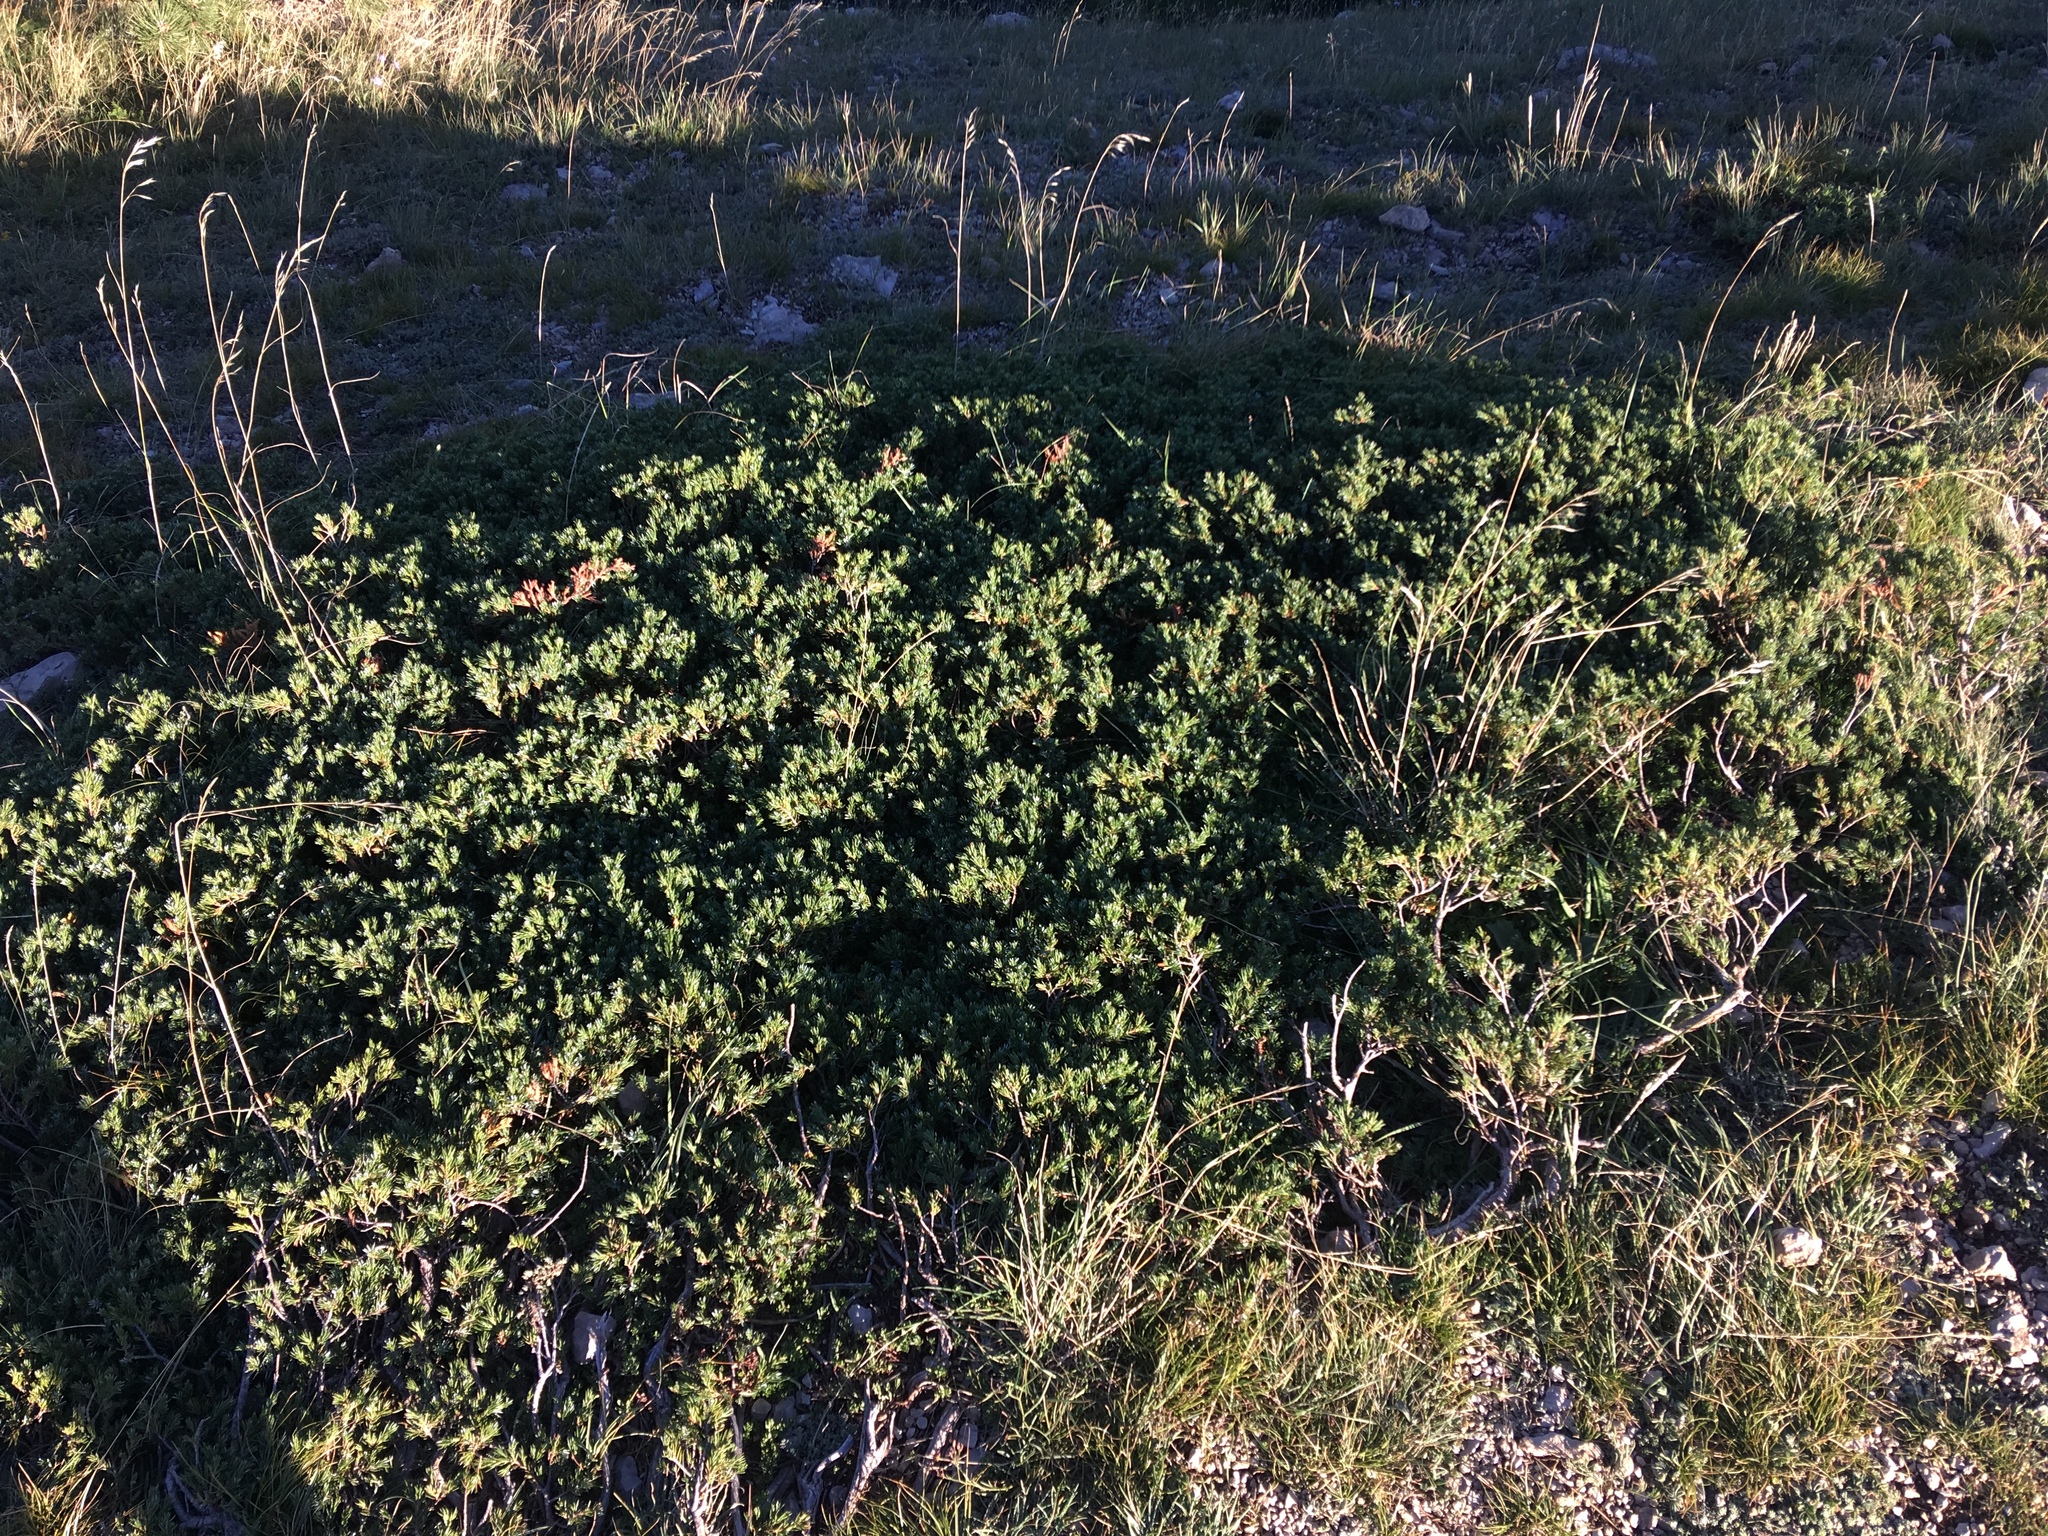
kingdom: Plantae
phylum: Tracheophyta
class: Pinopsida
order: Pinales
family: Cupressaceae
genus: Juniperus
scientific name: Juniperus communis
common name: Common juniper
